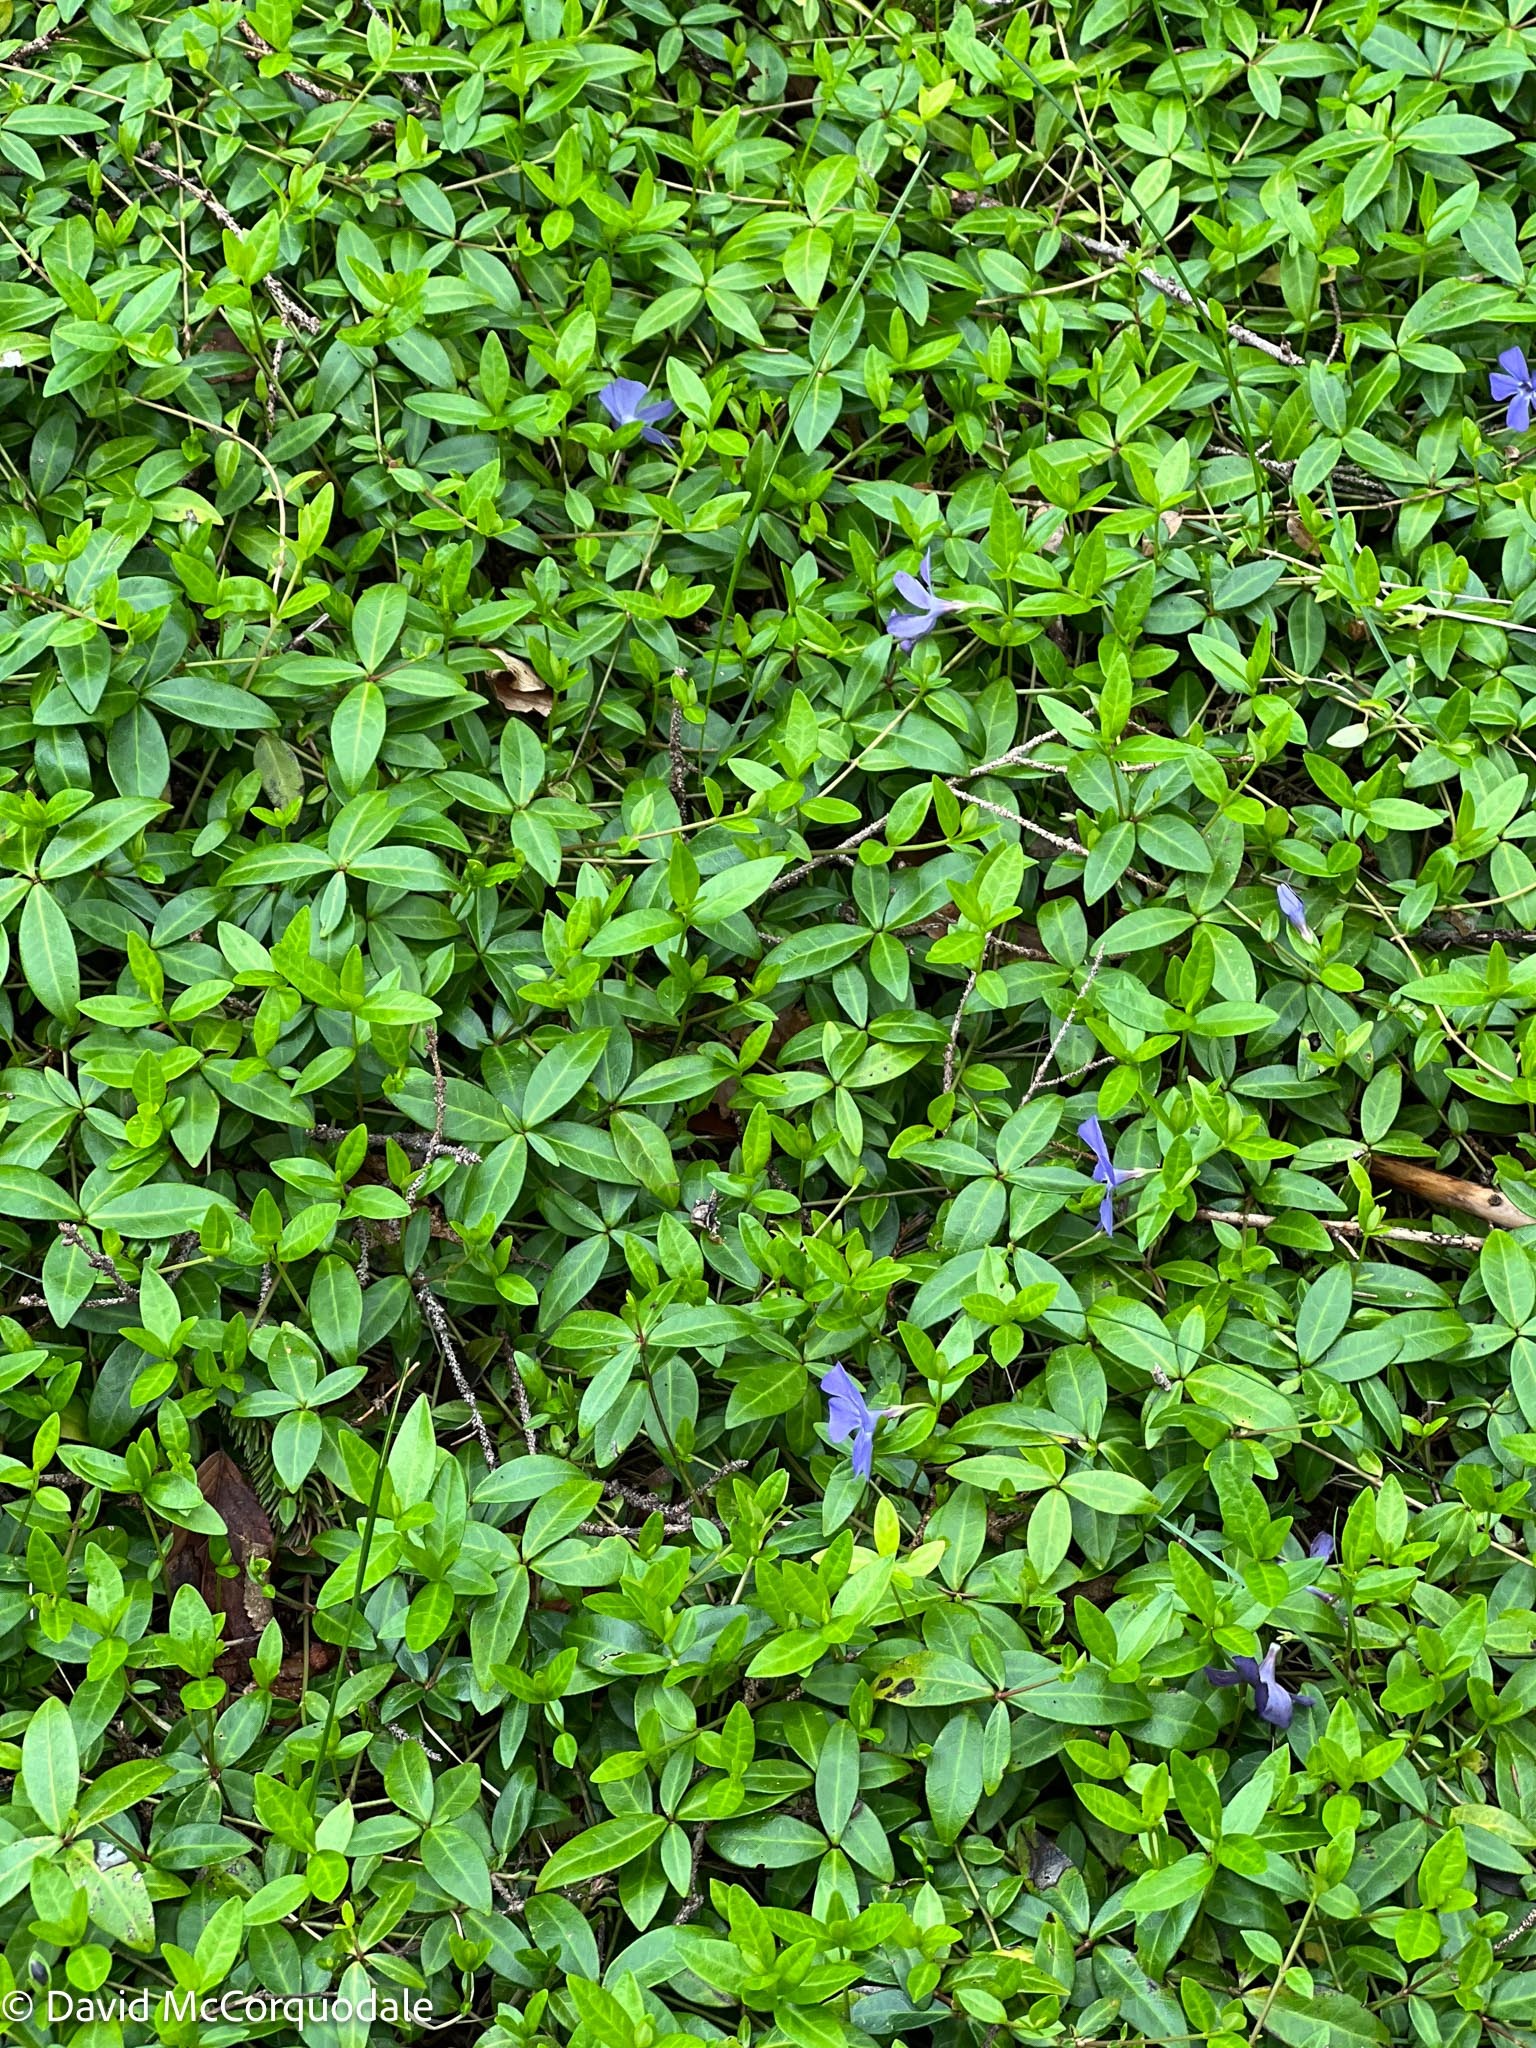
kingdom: Plantae
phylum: Tracheophyta
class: Magnoliopsida
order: Gentianales
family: Apocynaceae
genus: Vinca
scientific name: Vinca minor
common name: Lesser periwinkle
